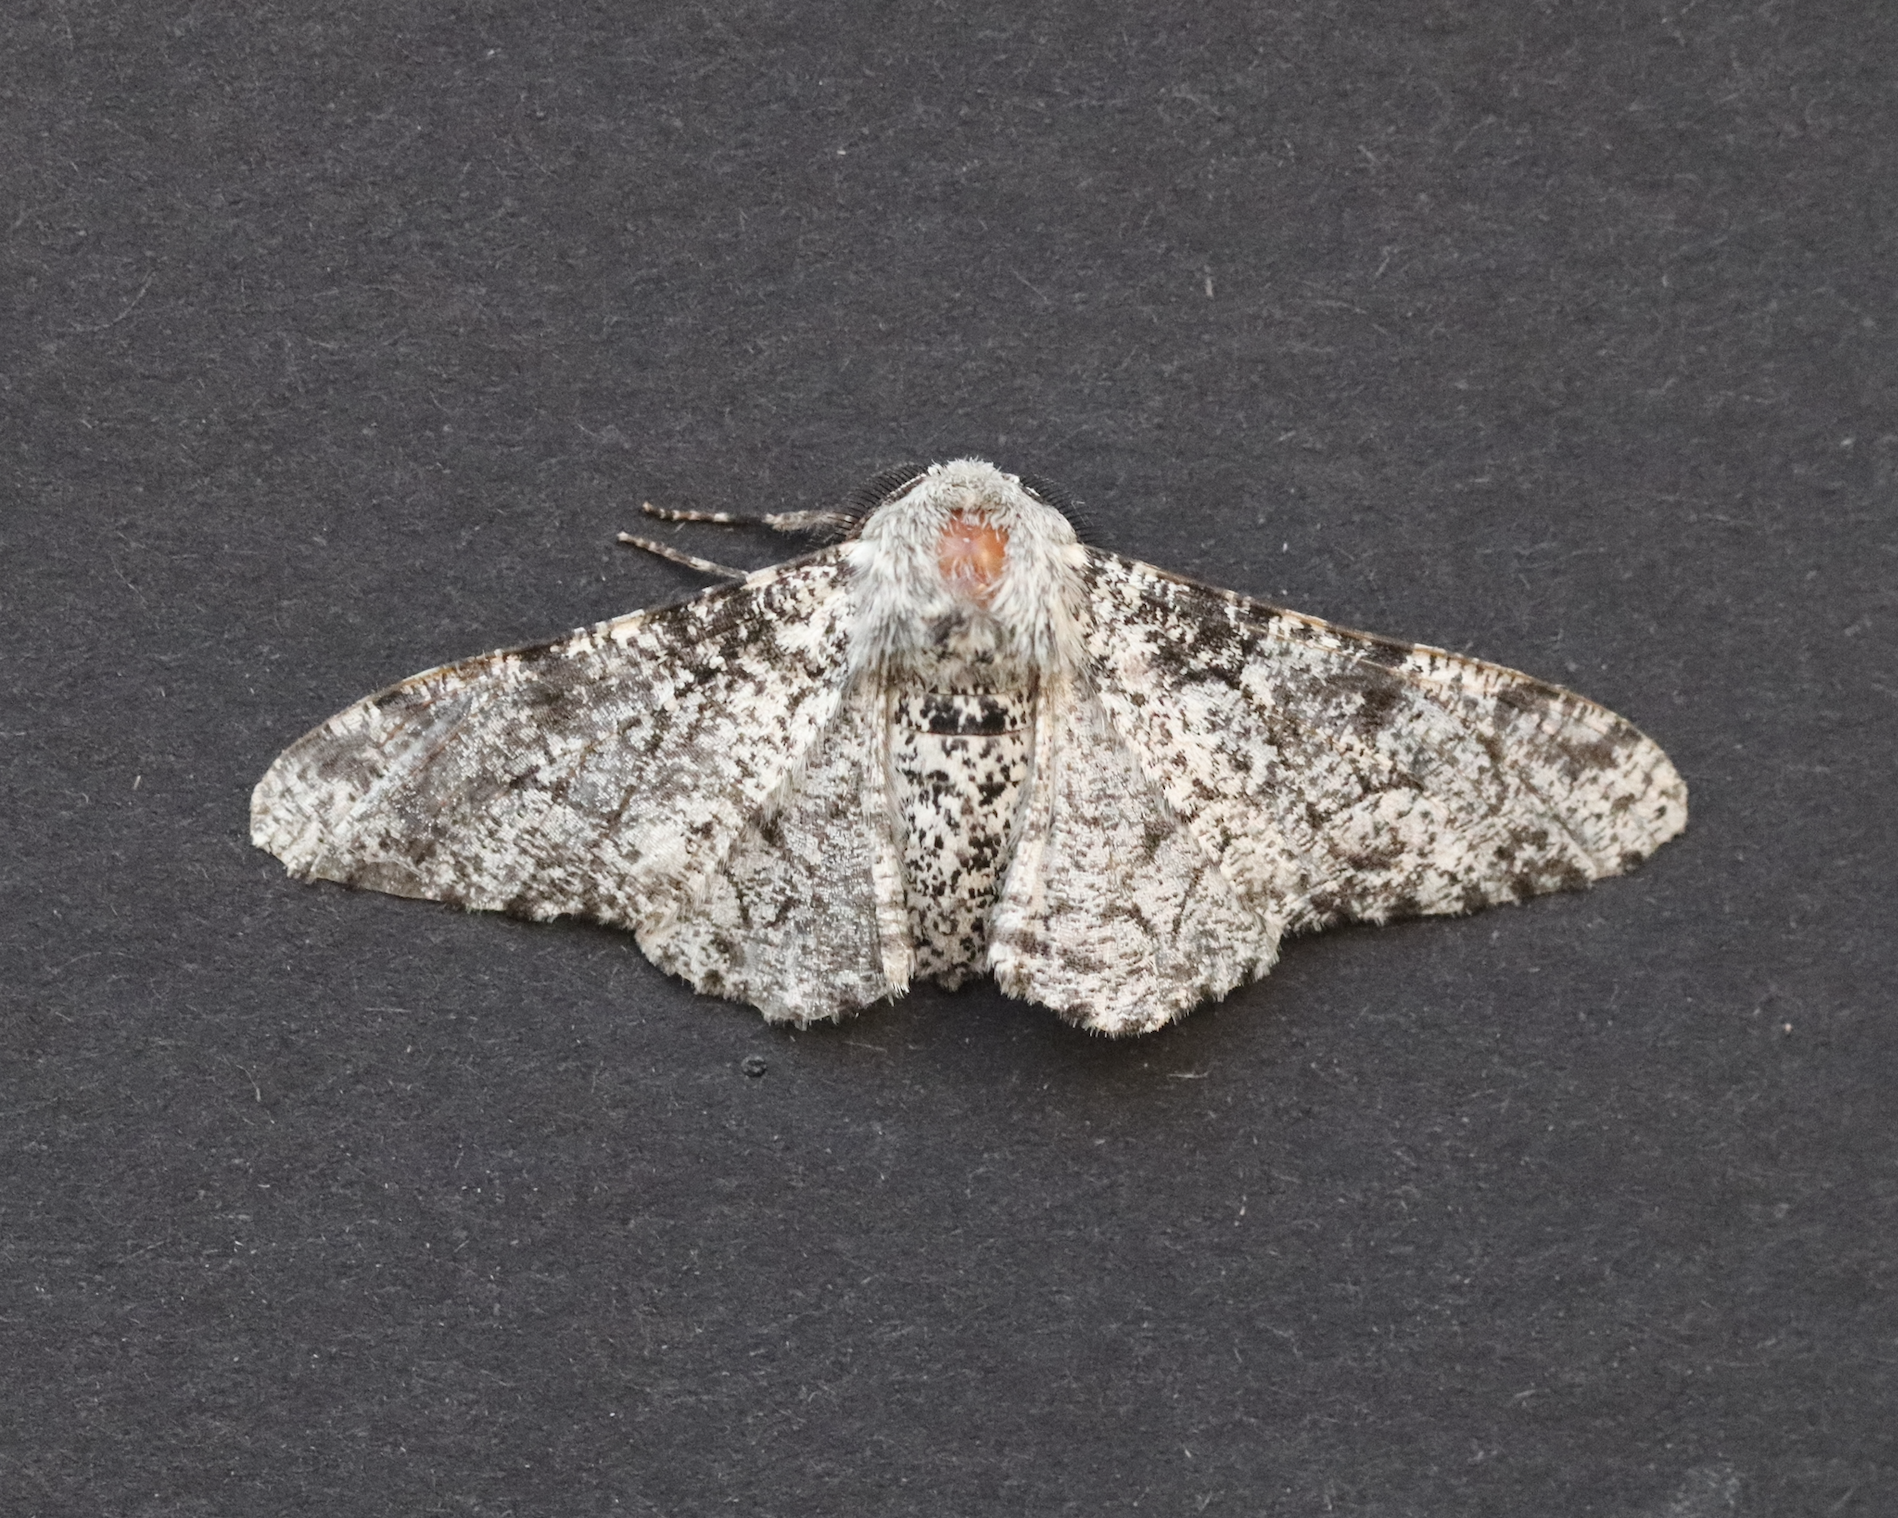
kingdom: Animalia
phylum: Arthropoda
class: Insecta
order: Lepidoptera
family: Geometridae
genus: Biston
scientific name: Biston betularia
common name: Peppered moth
